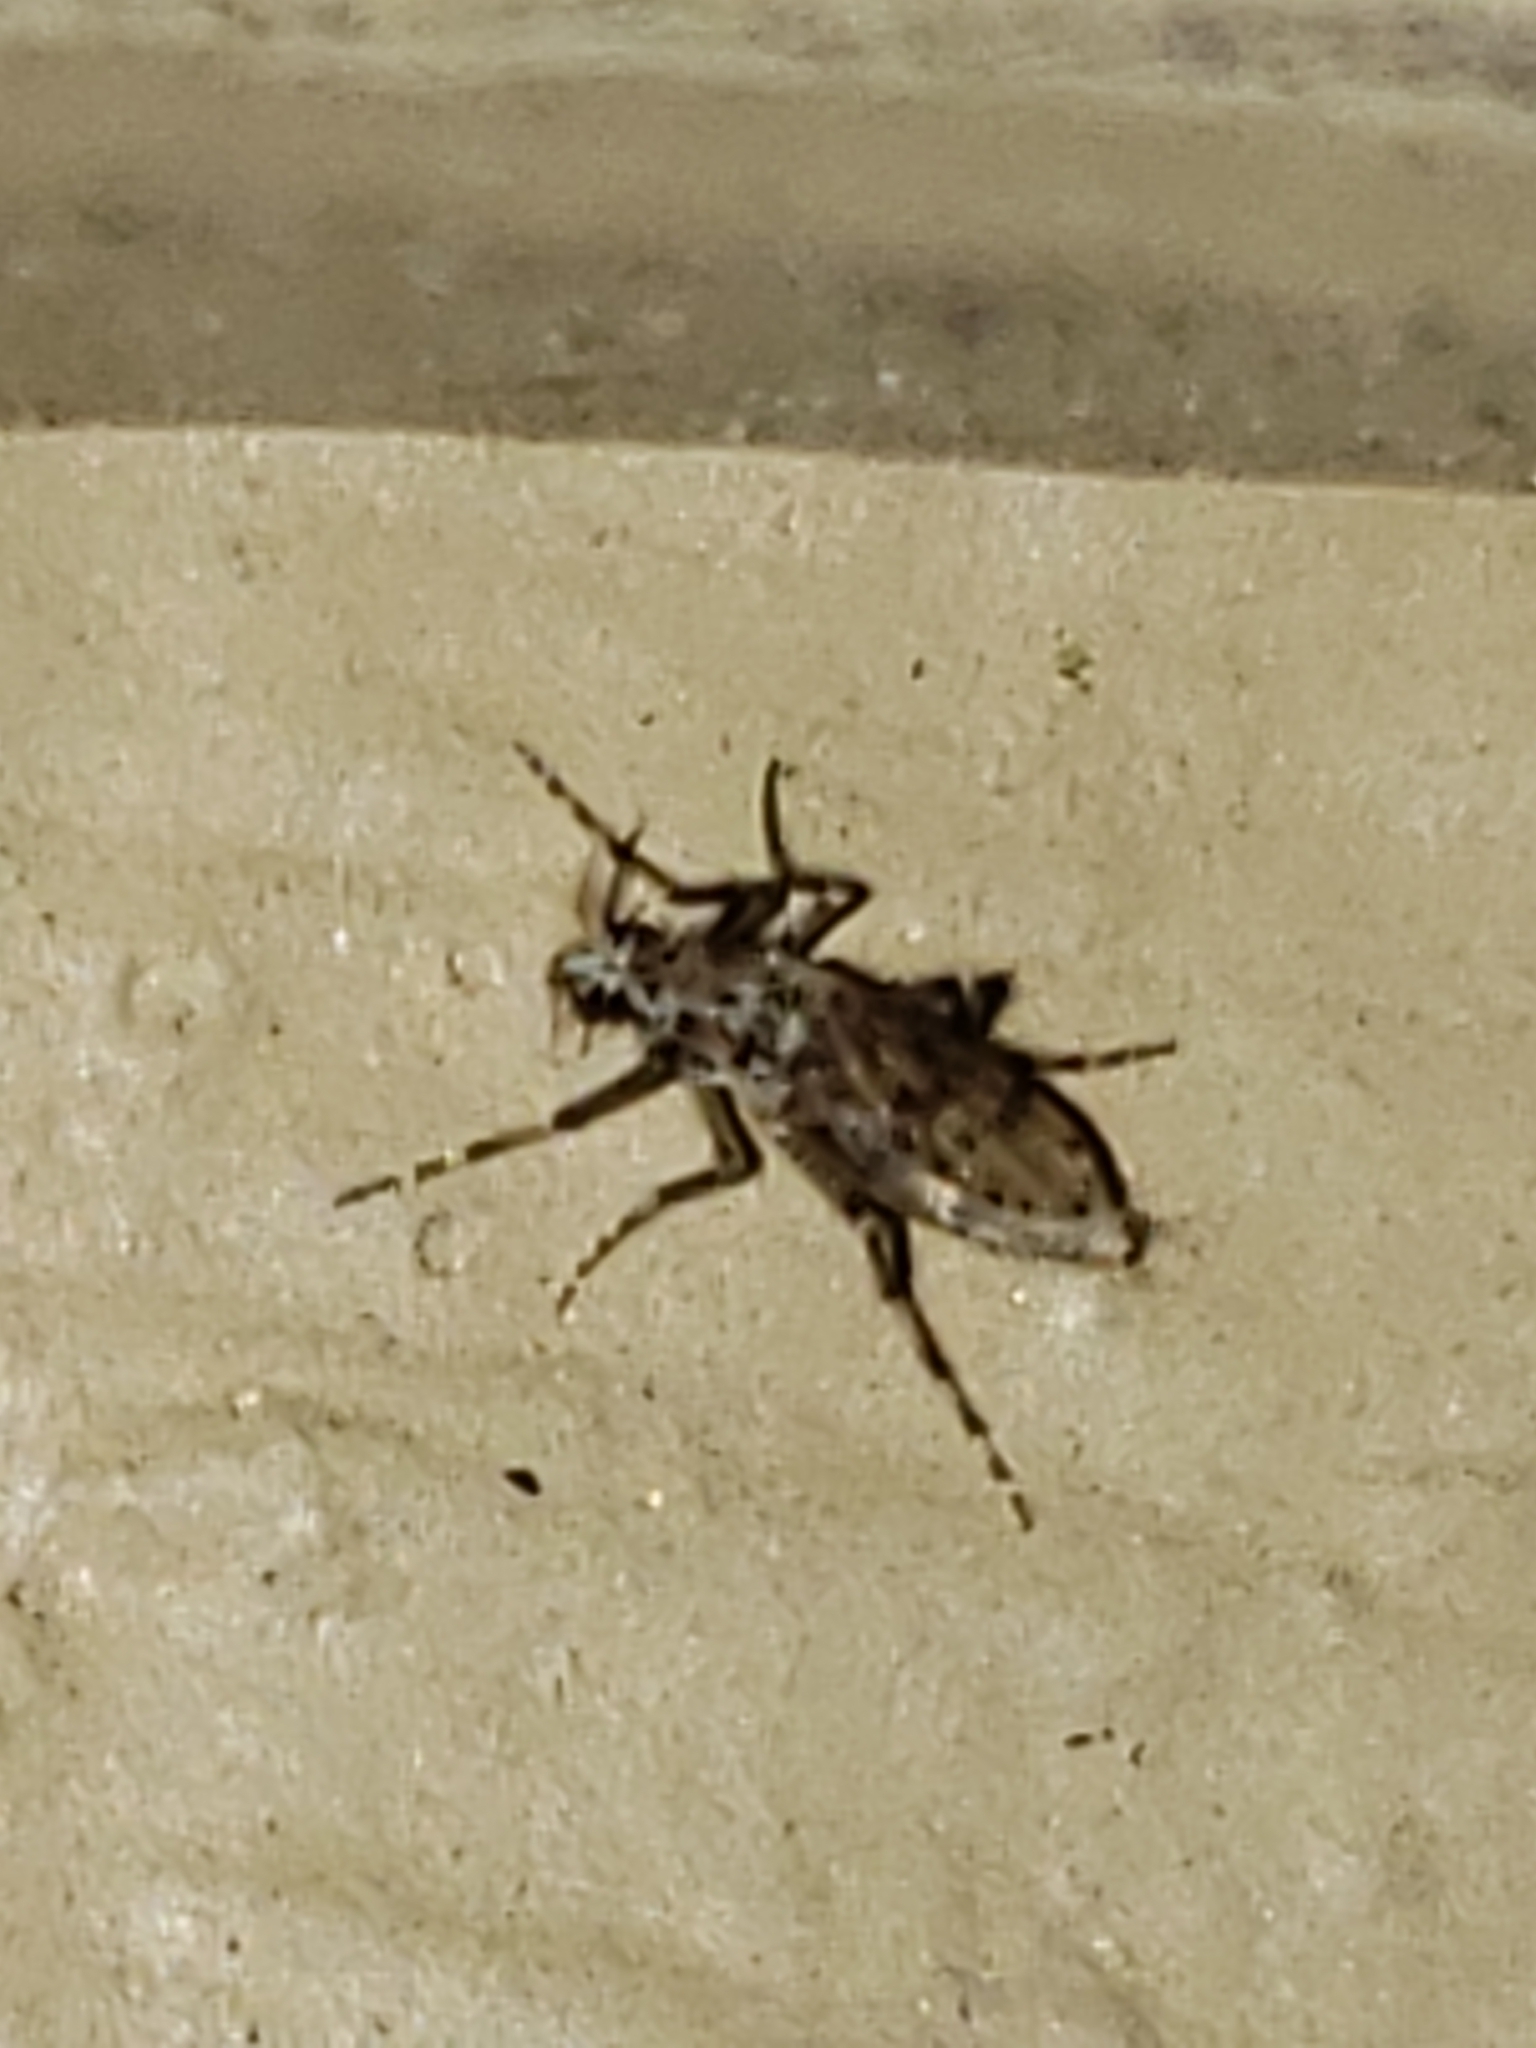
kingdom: Animalia
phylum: Arthropoda
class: Insecta
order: Diptera
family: Chaoboridae
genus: Chaoborus
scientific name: Chaoborus punctipennis
